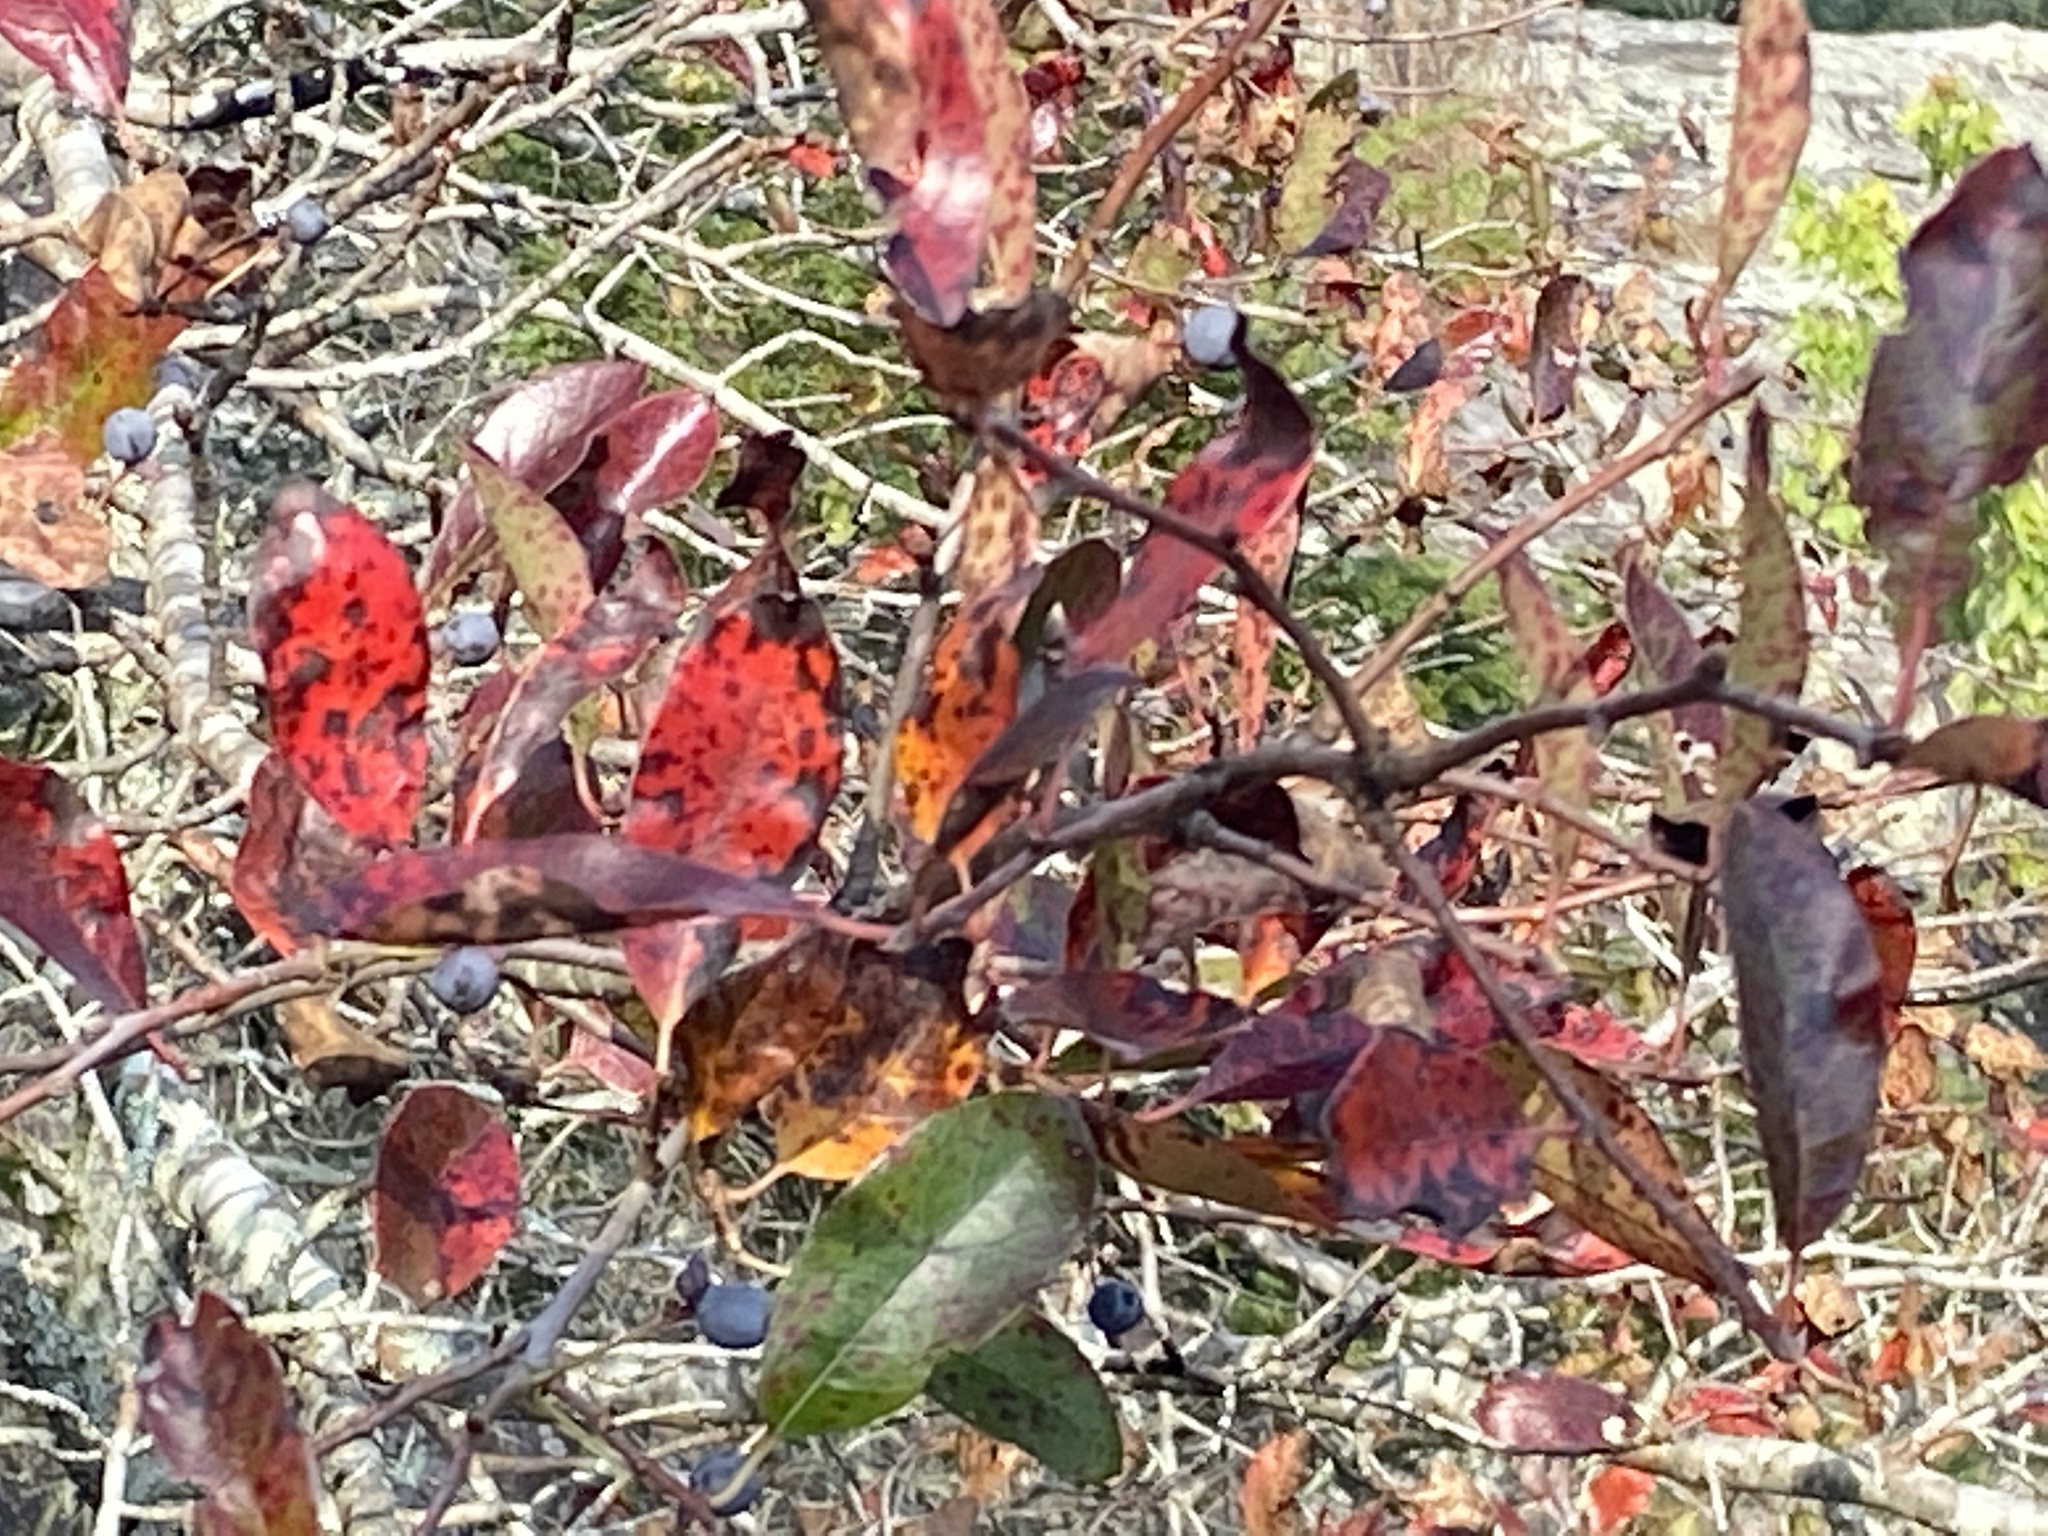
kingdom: Plantae
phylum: Tracheophyta
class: Magnoliopsida
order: Cornales
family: Nyssaceae
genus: Nyssa
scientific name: Nyssa sylvatica
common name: Black tupelo
